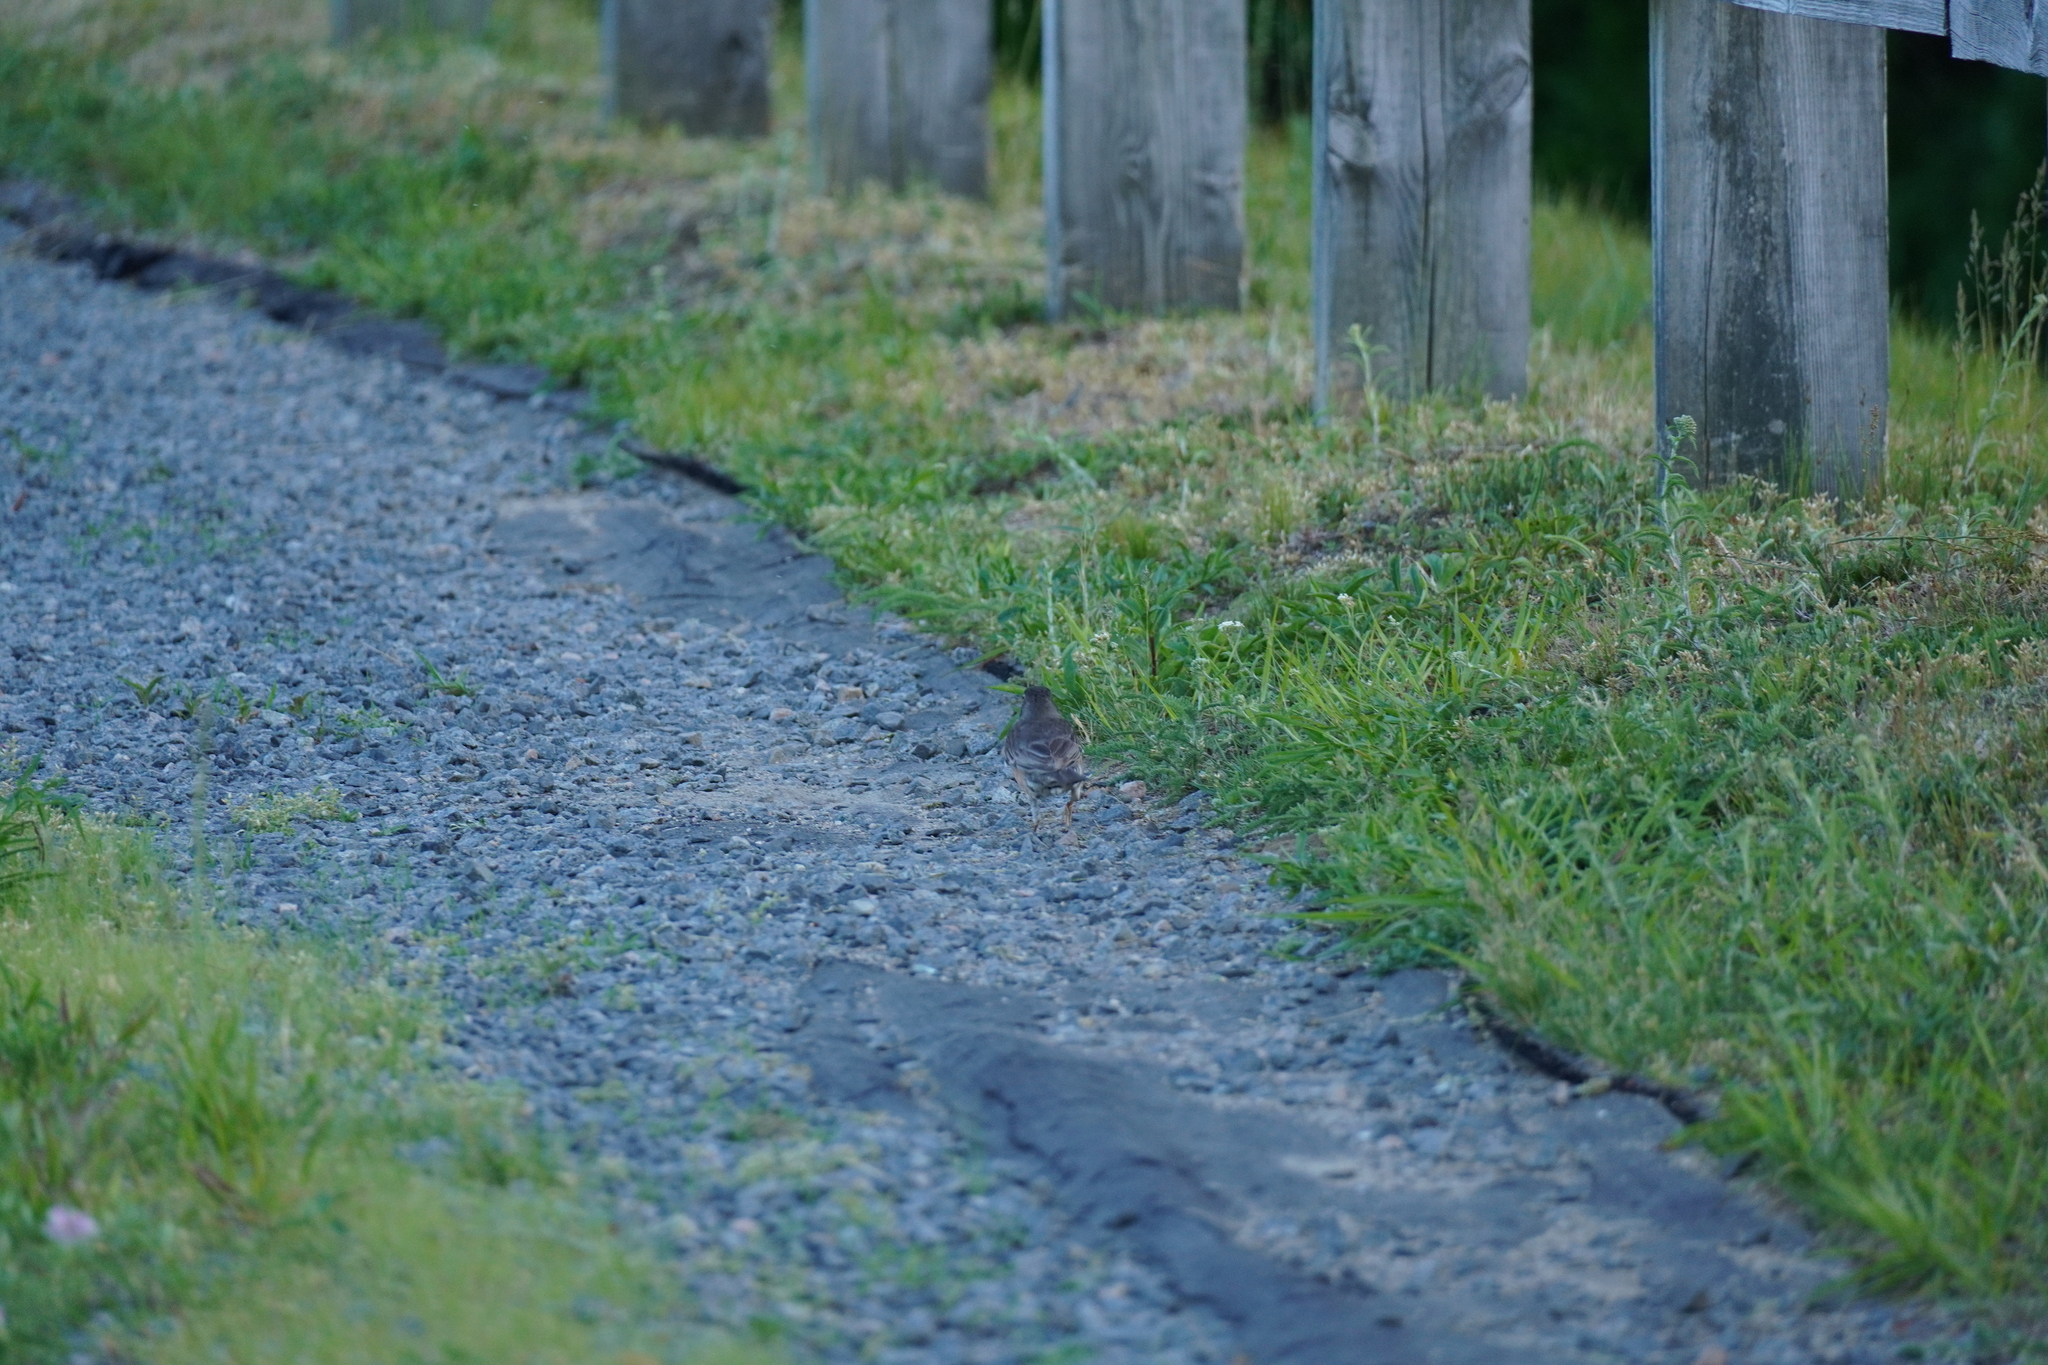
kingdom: Animalia
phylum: Chordata
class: Aves
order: Passeriformes
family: Turdidae
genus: Turdus
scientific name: Turdus migratorius
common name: American robin
